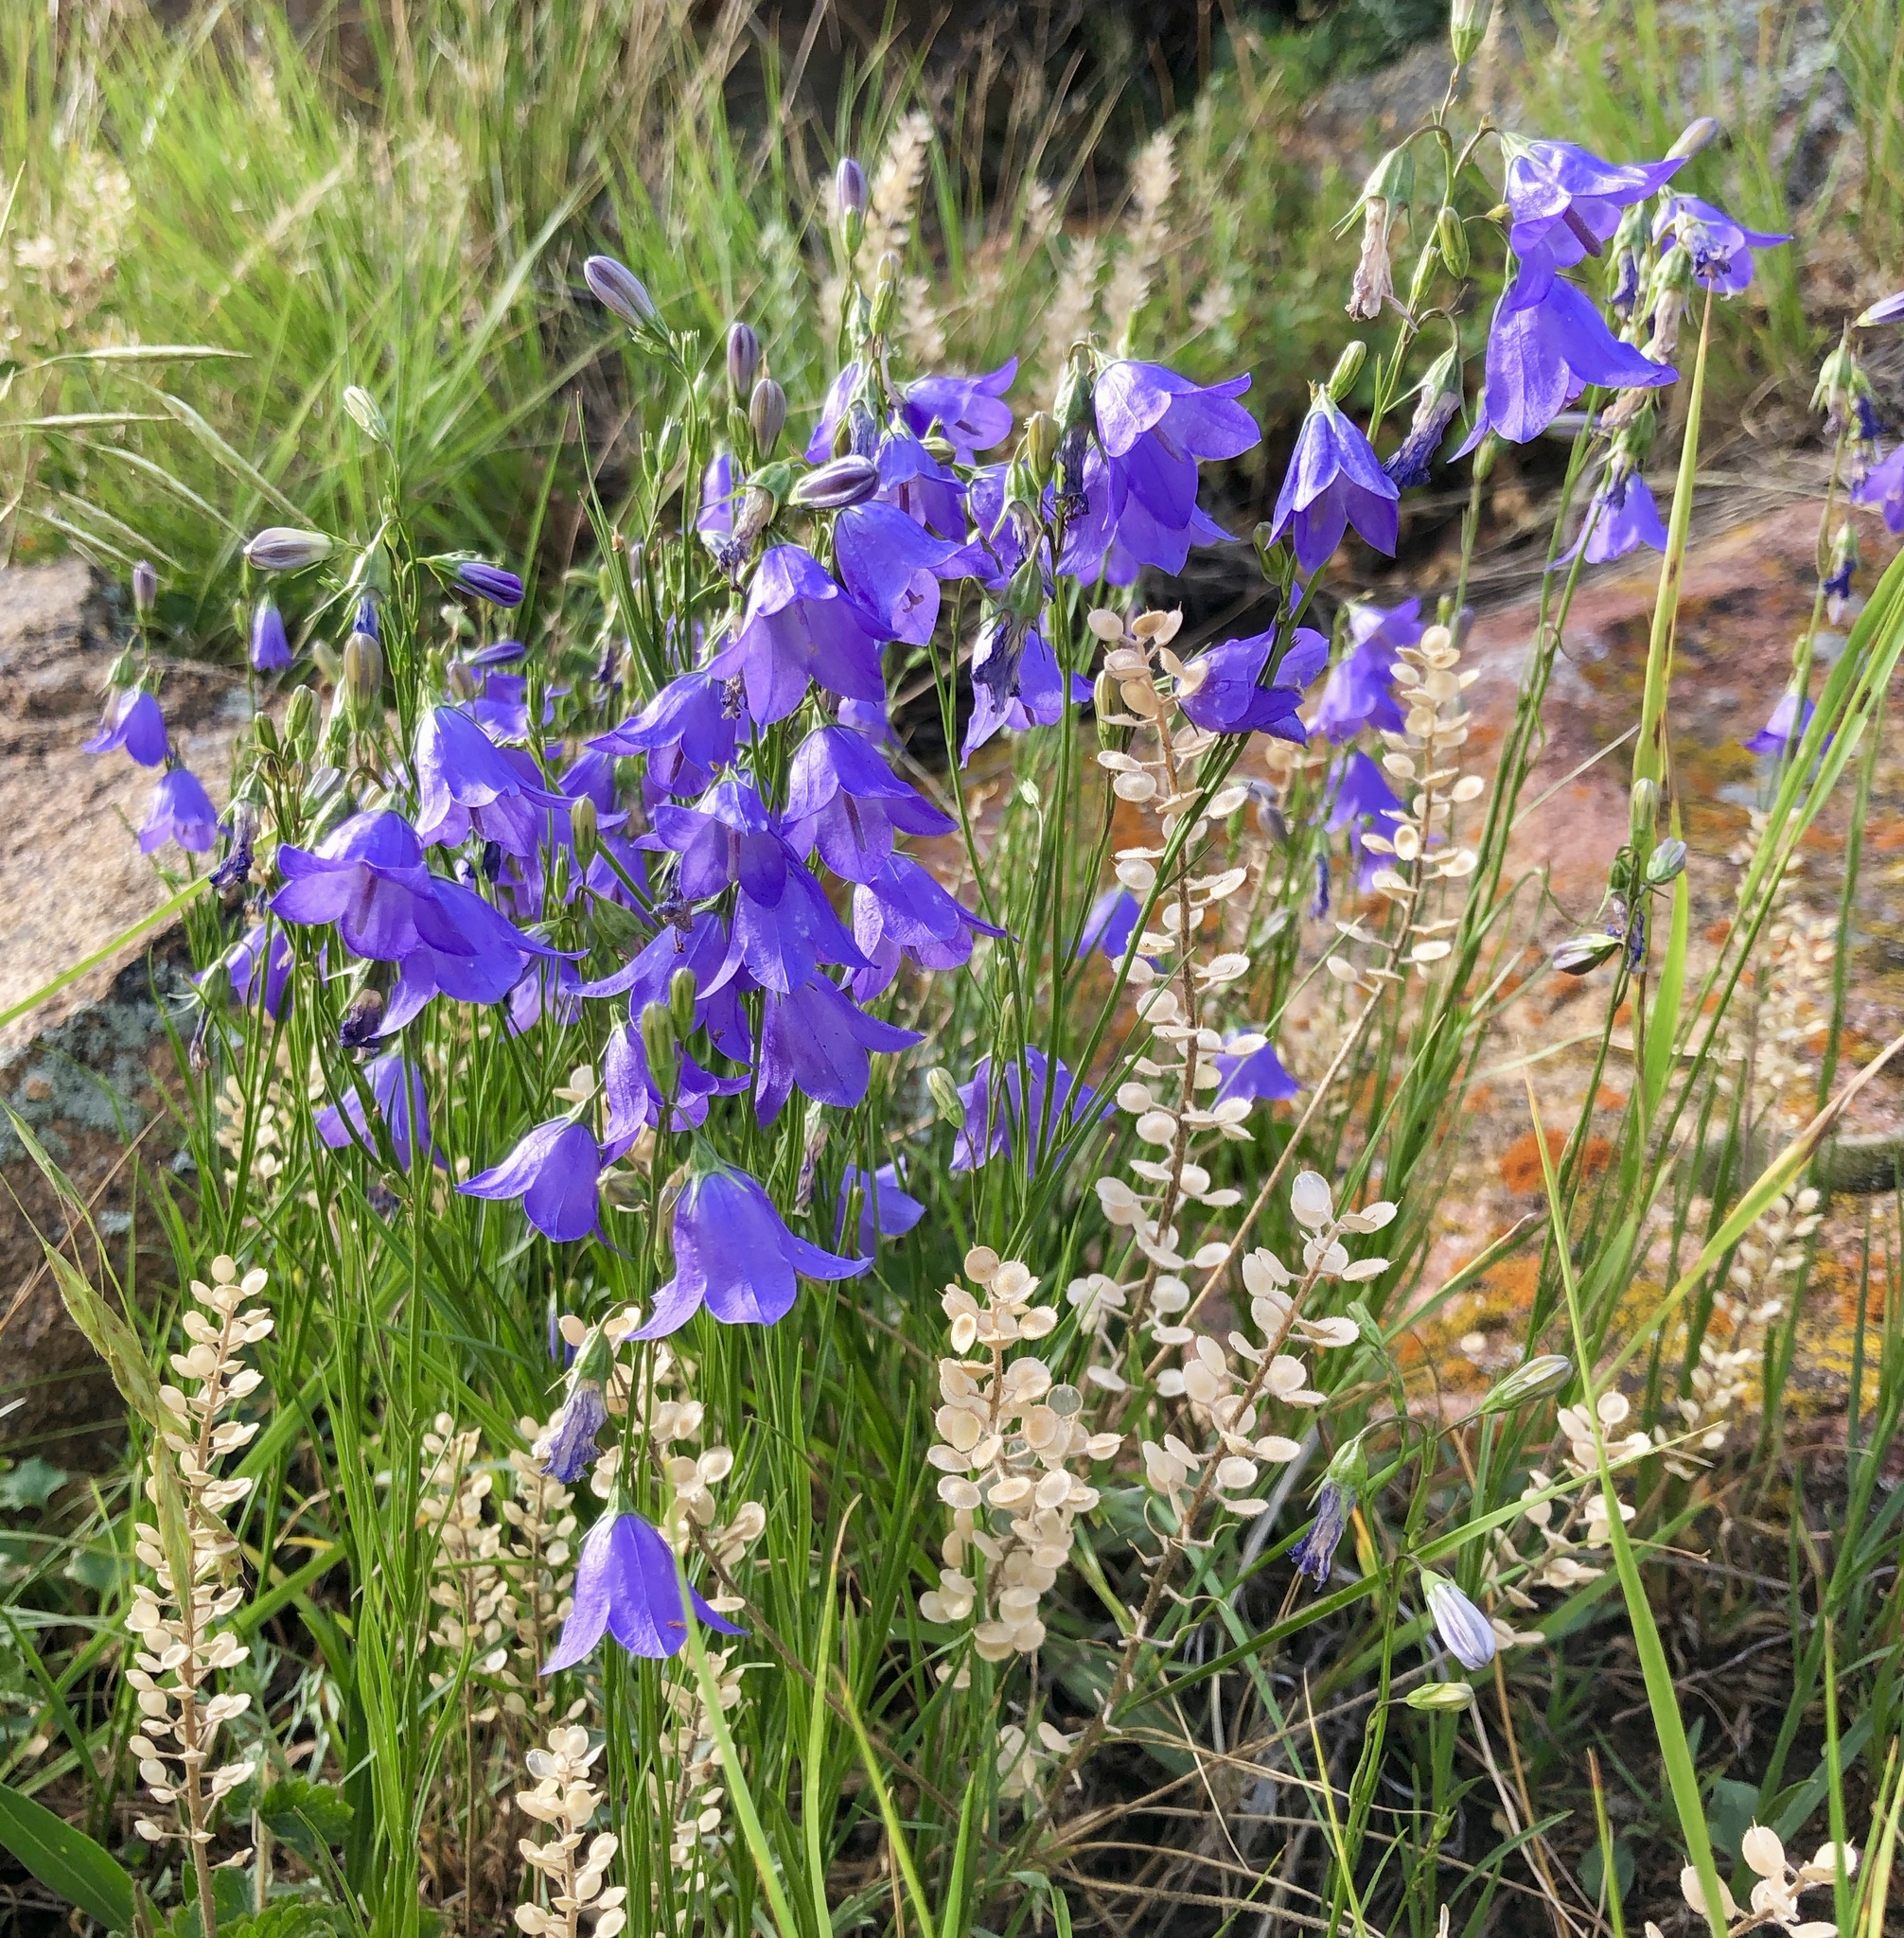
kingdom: Plantae
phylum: Tracheophyta
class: Magnoliopsida
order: Asterales
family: Campanulaceae
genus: Campanula
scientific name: Campanula petiolata
